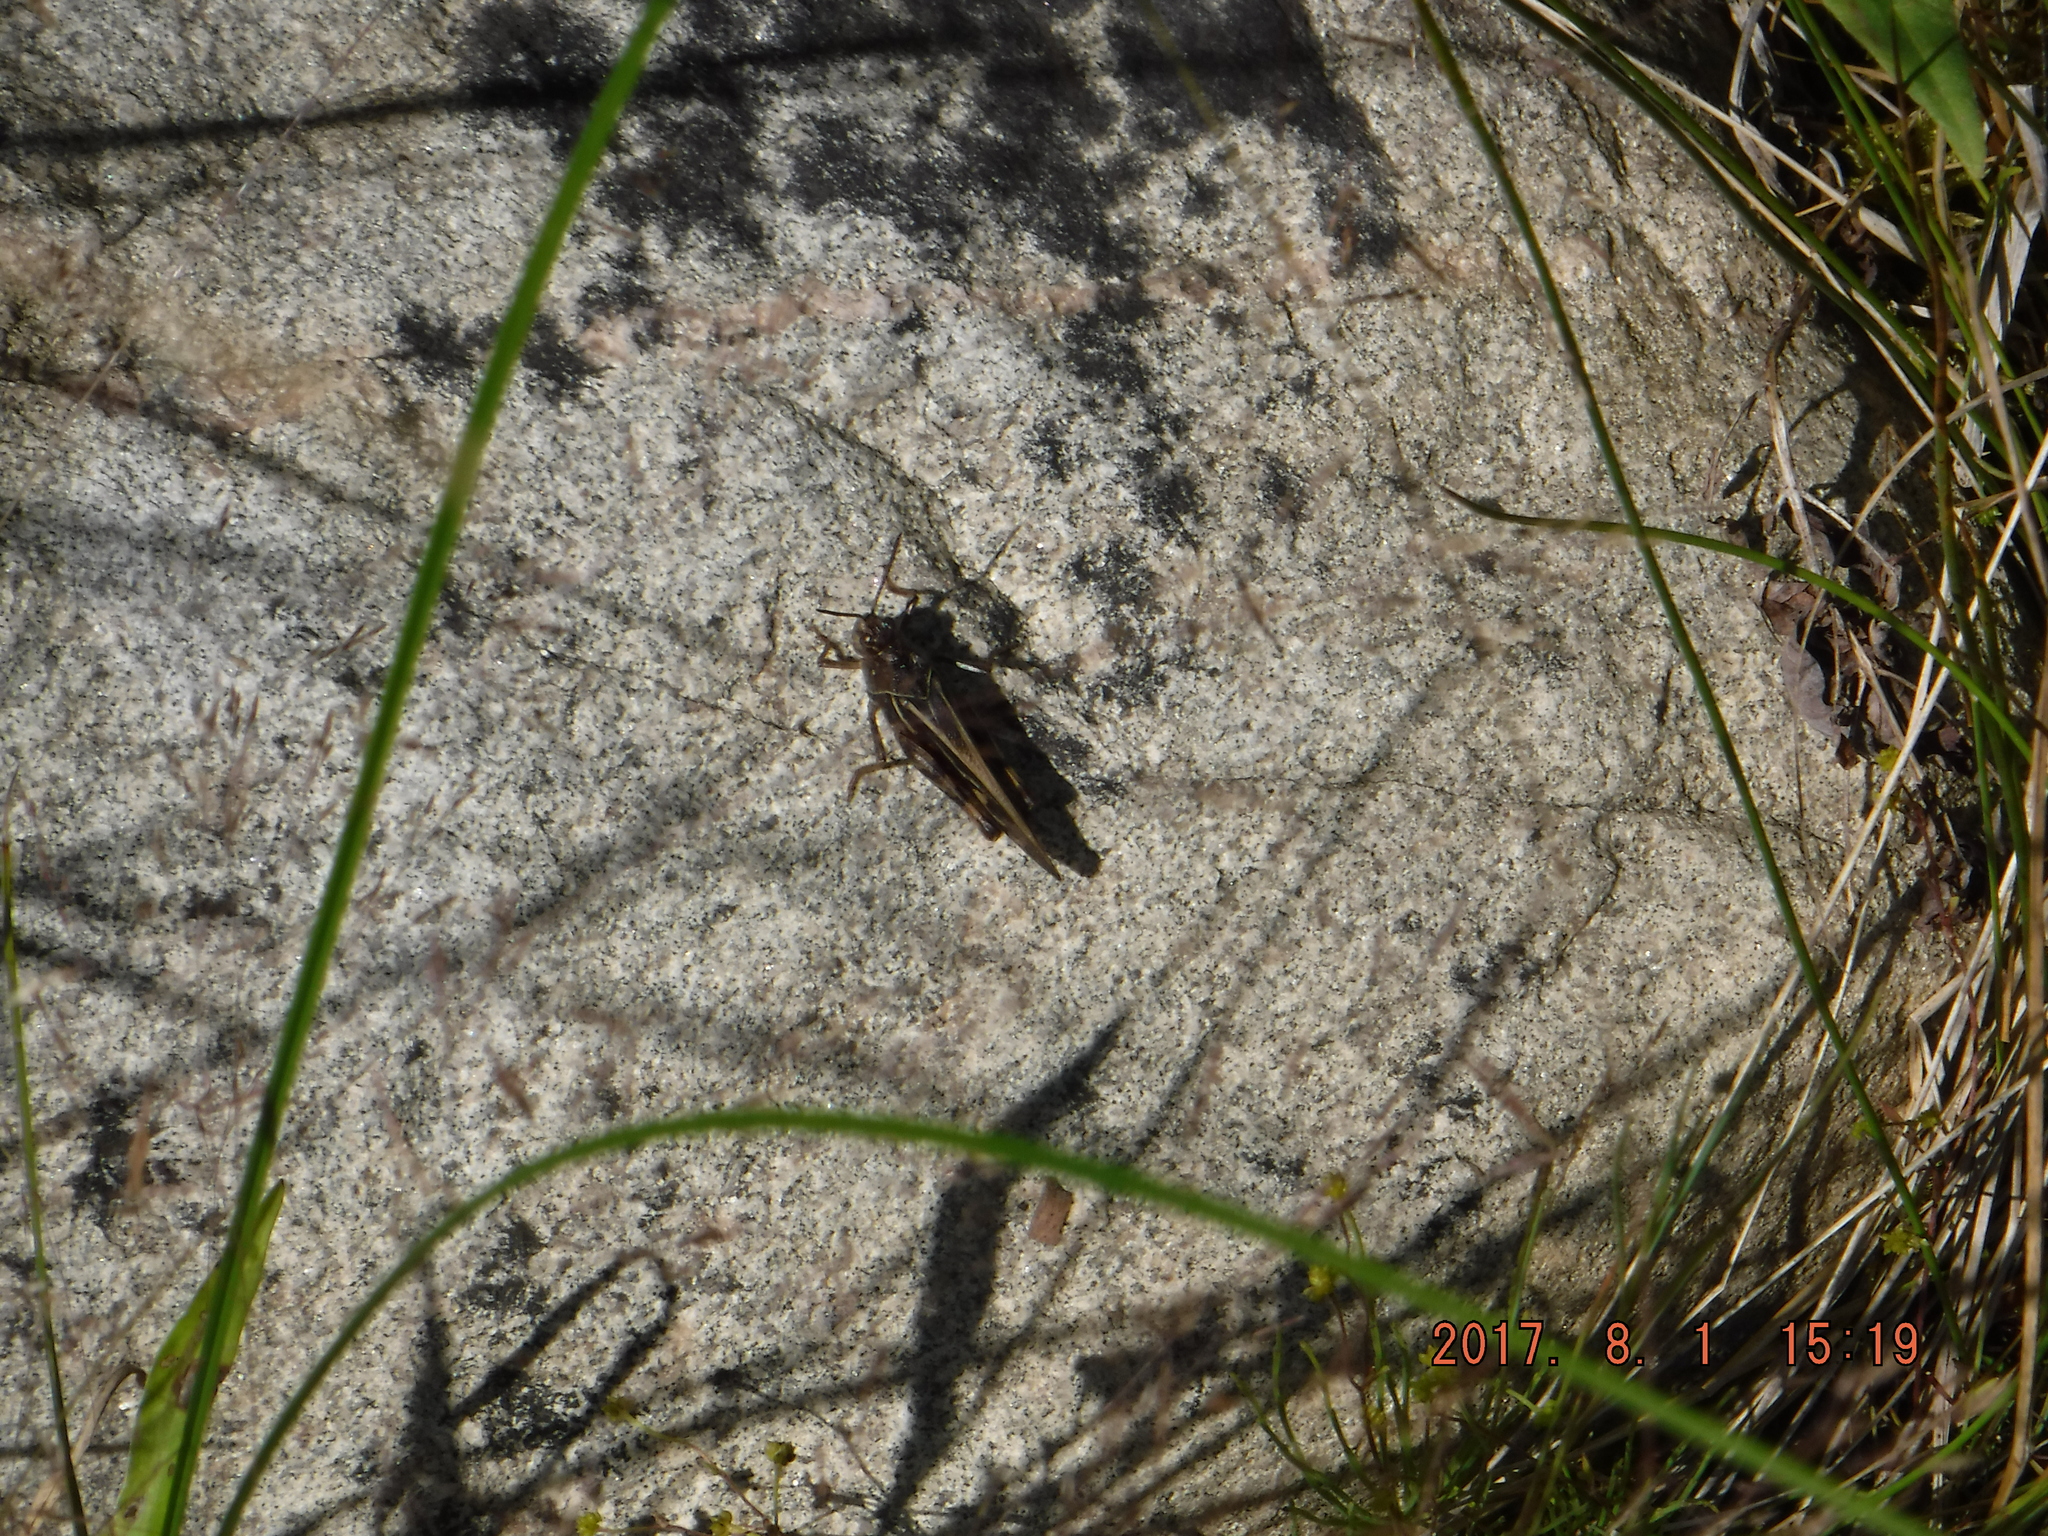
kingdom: Animalia
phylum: Arthropoda
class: Insecta
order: Orthoptera
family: Acrididae
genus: Pardalophora
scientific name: Pardalophora apiculata
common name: Coral-winged locust
